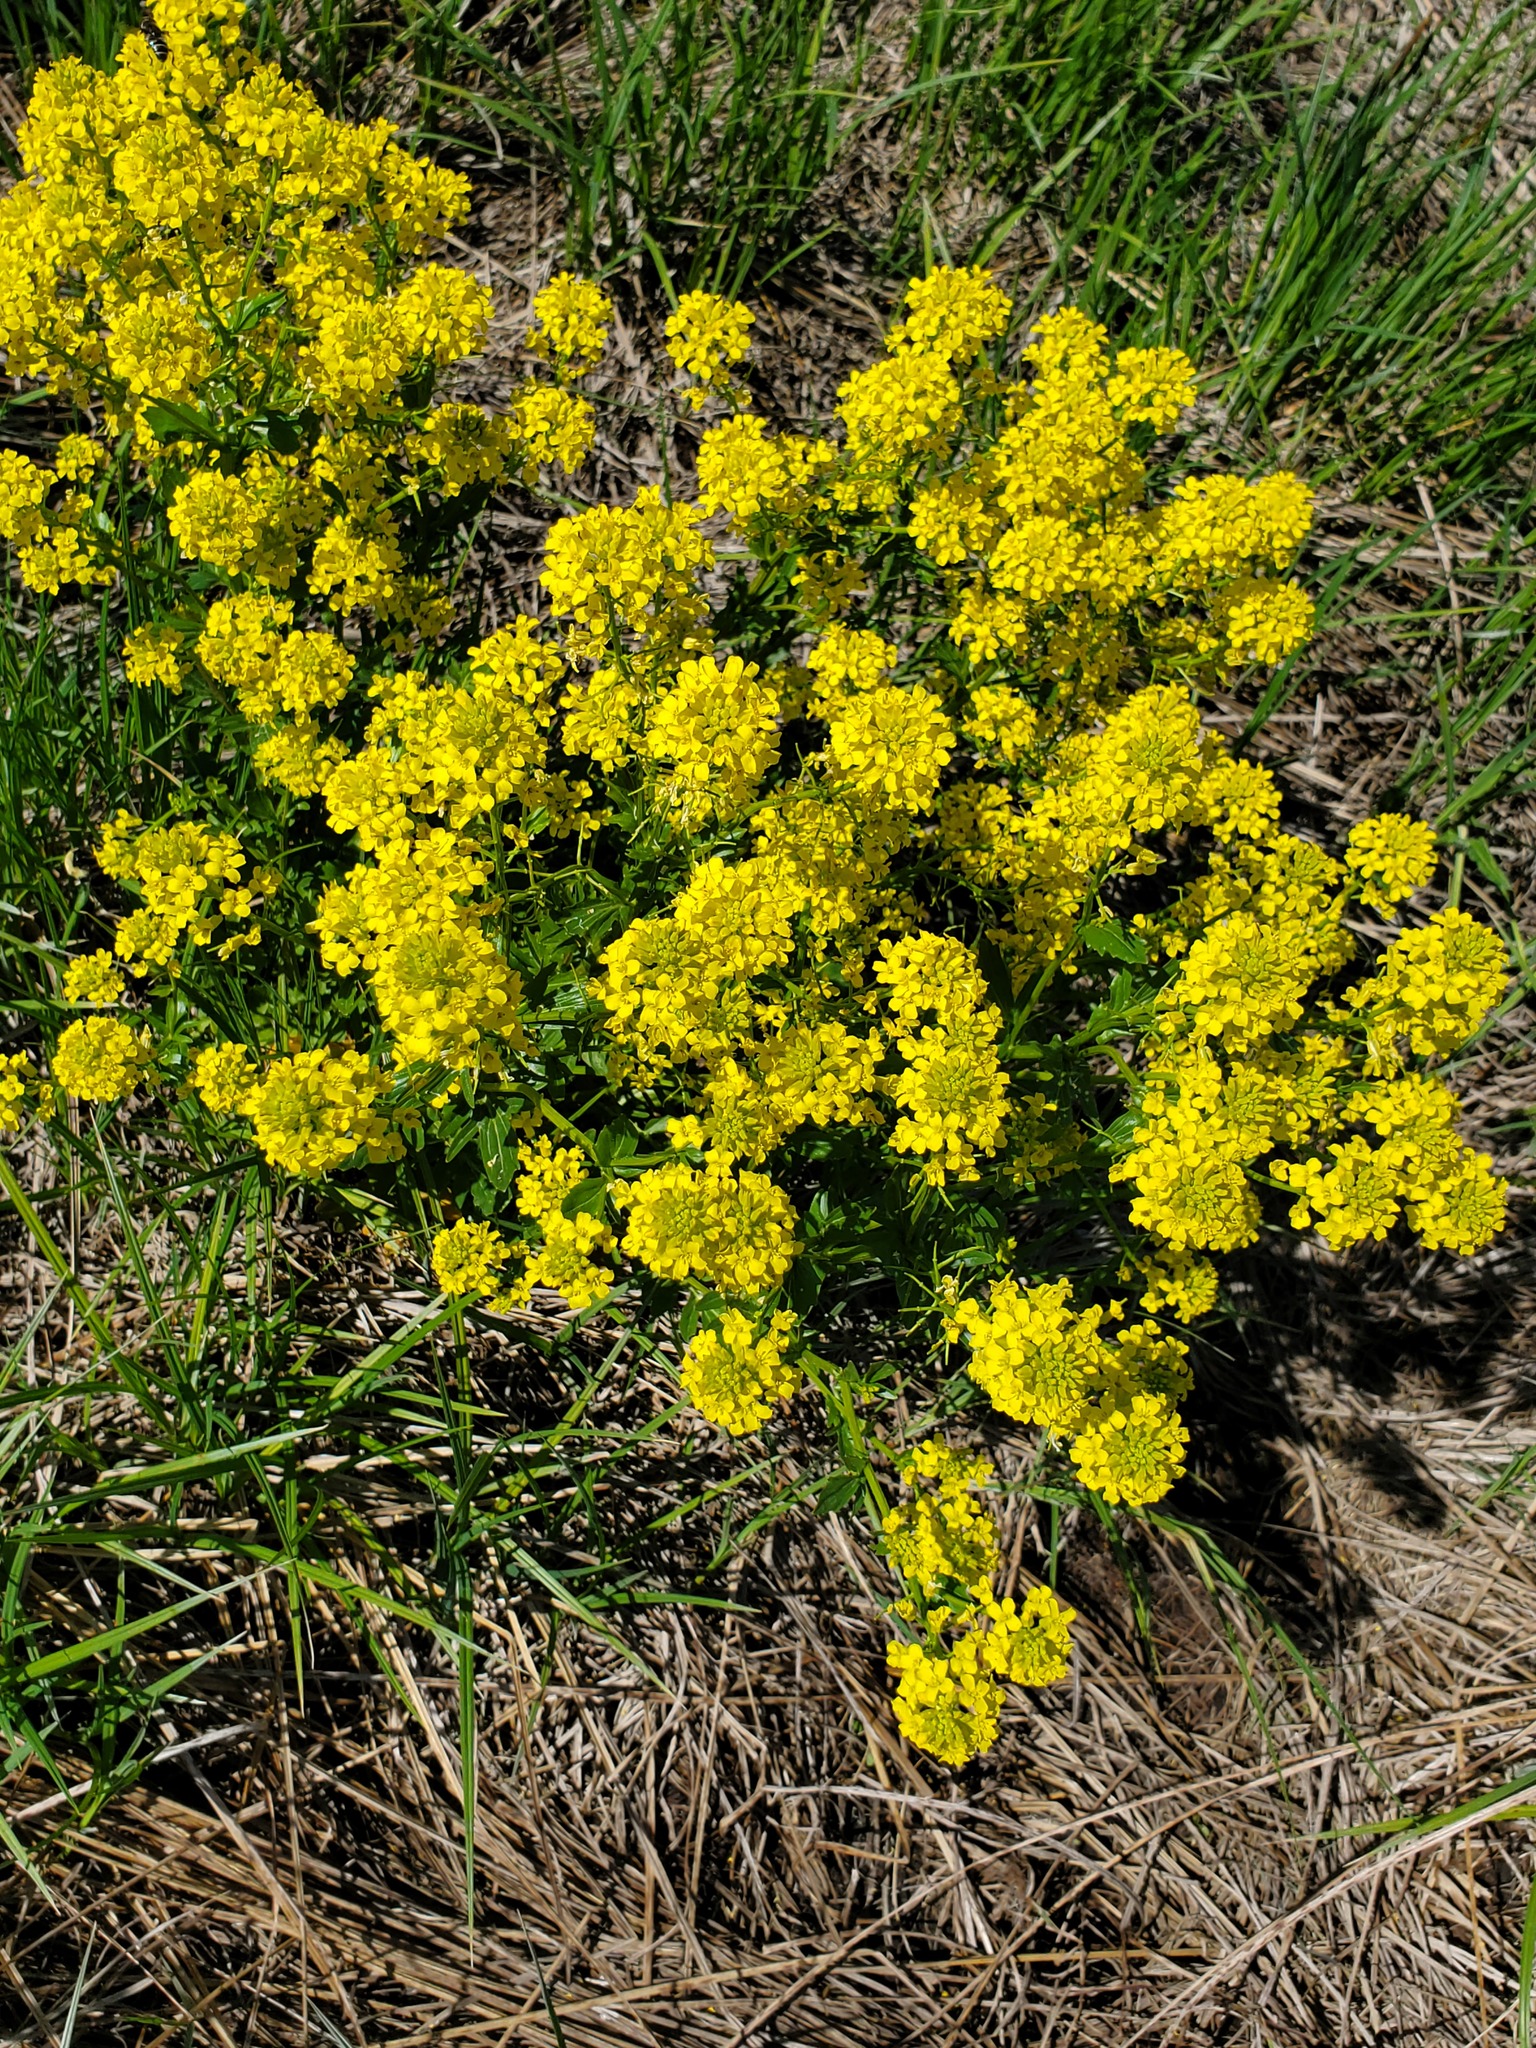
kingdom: Plantae
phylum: Tracheophyta
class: Magnoliopsida
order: Brassicales
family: Brassicaceae
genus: Barbarea
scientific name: Barbarea vulgaris
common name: Cressy-greens
